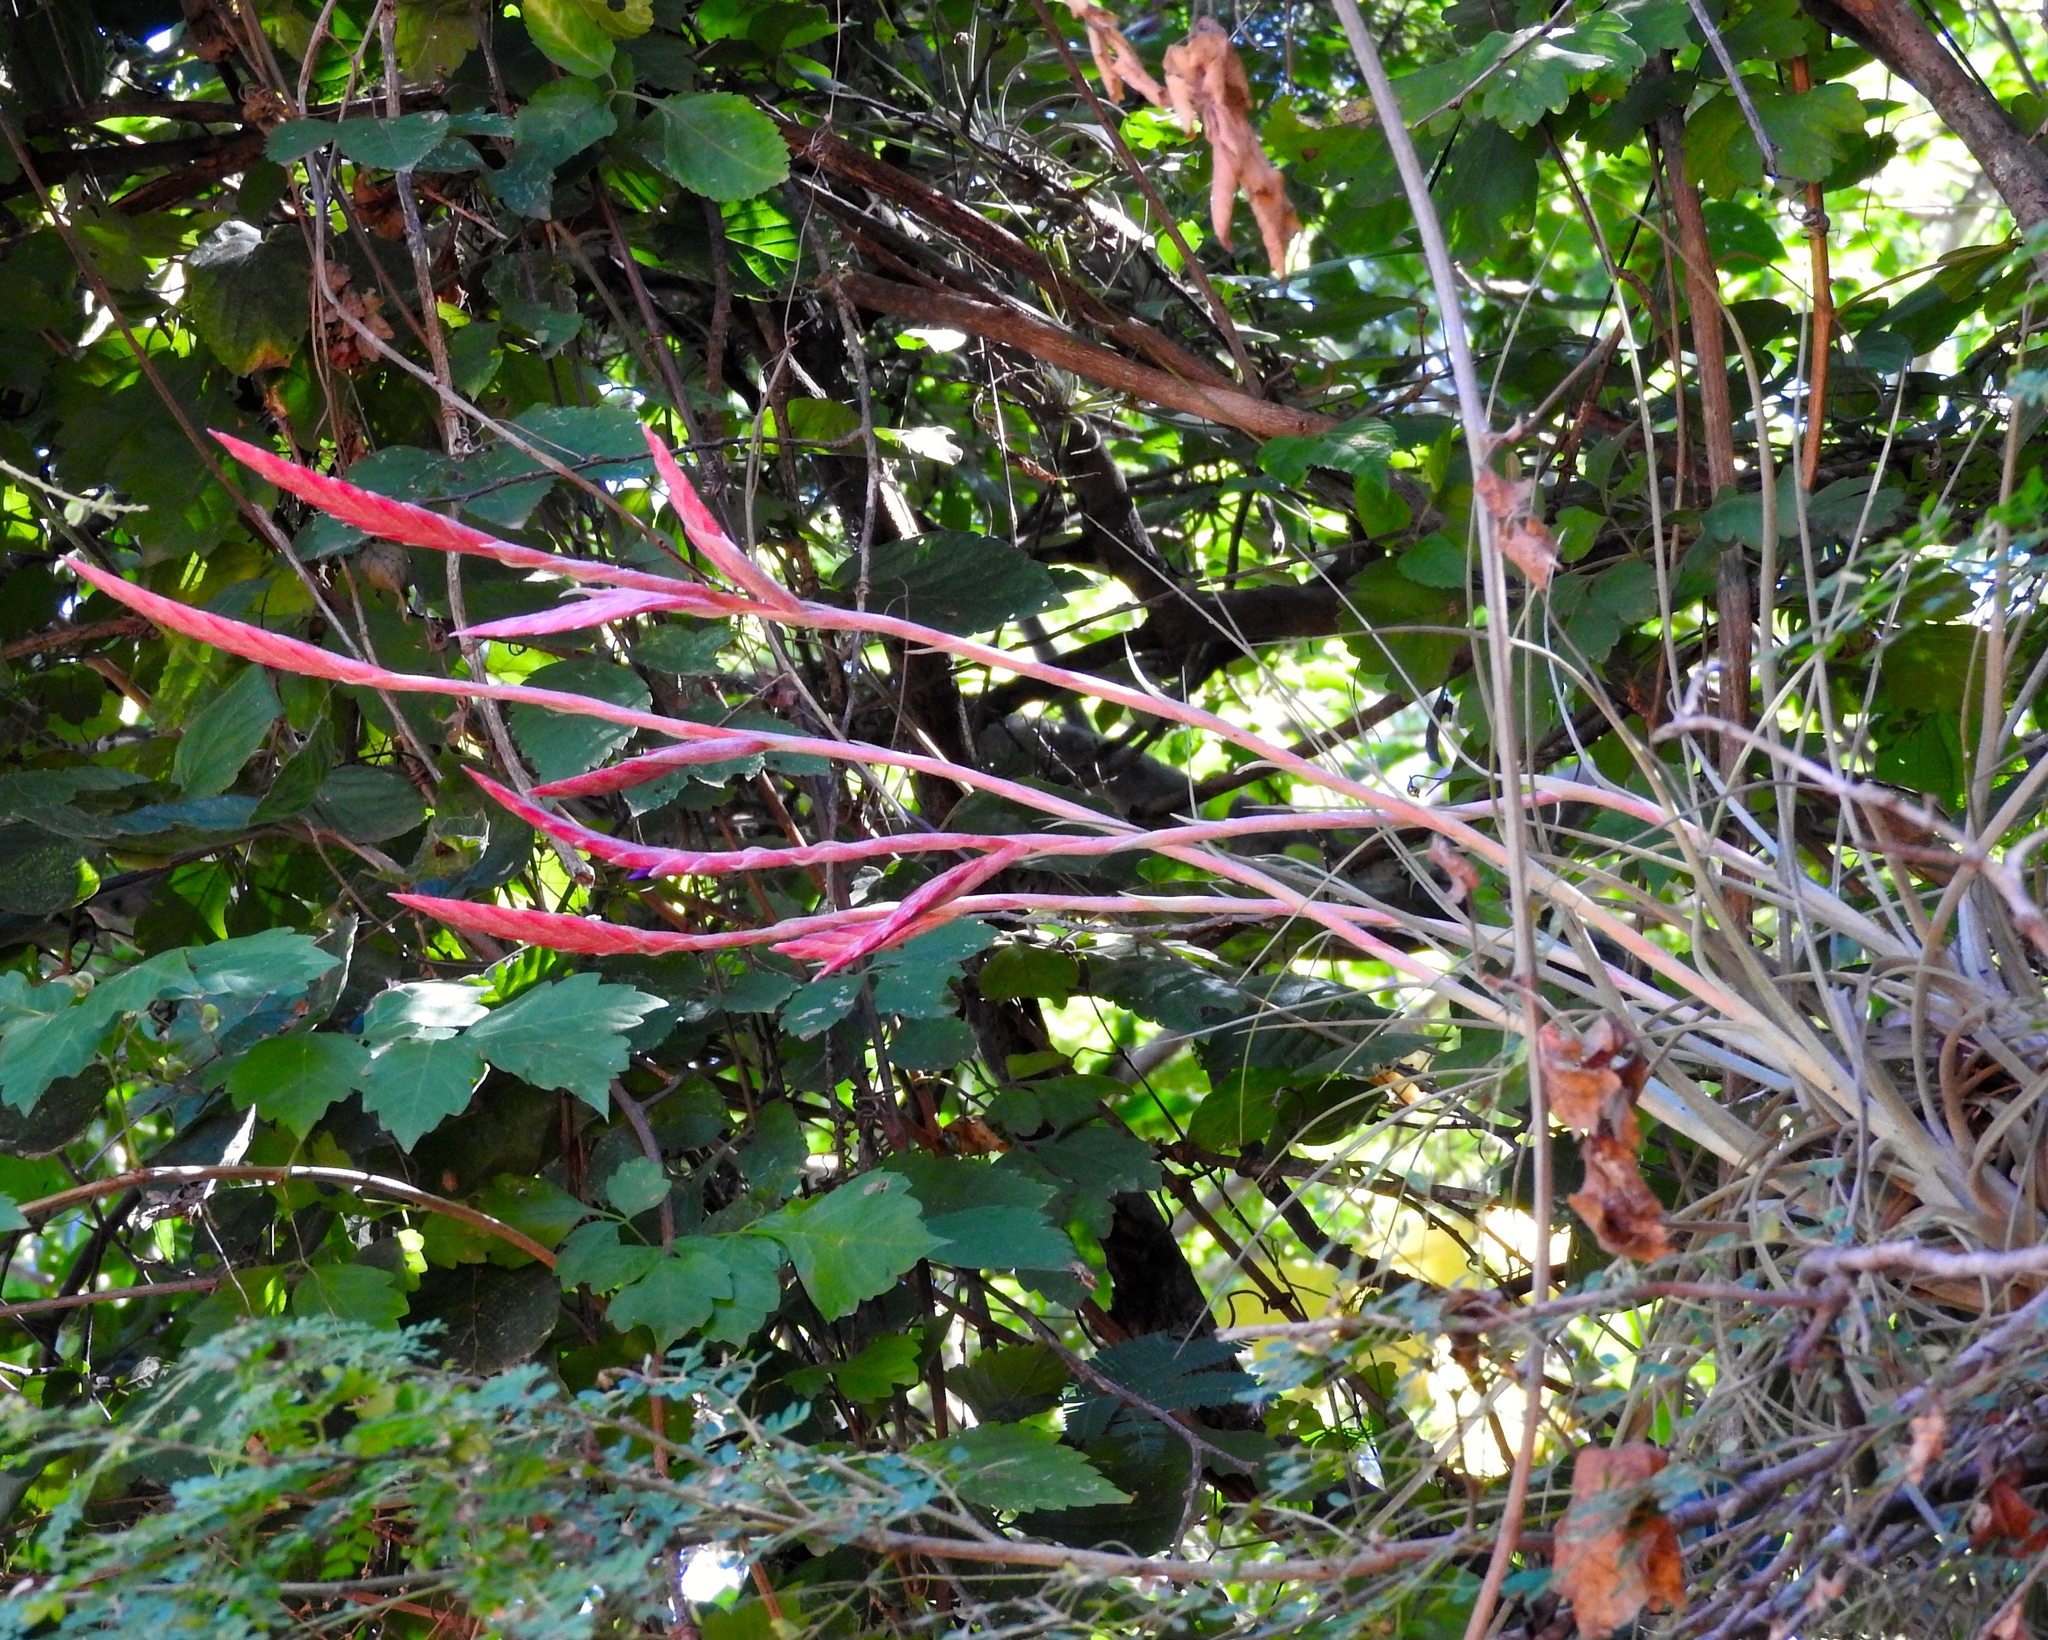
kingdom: Plantae
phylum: Tracheophyta
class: Liliopsida
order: Poales
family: Bromeliaceae
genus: Tillandsia
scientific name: Tillandsia exserta
